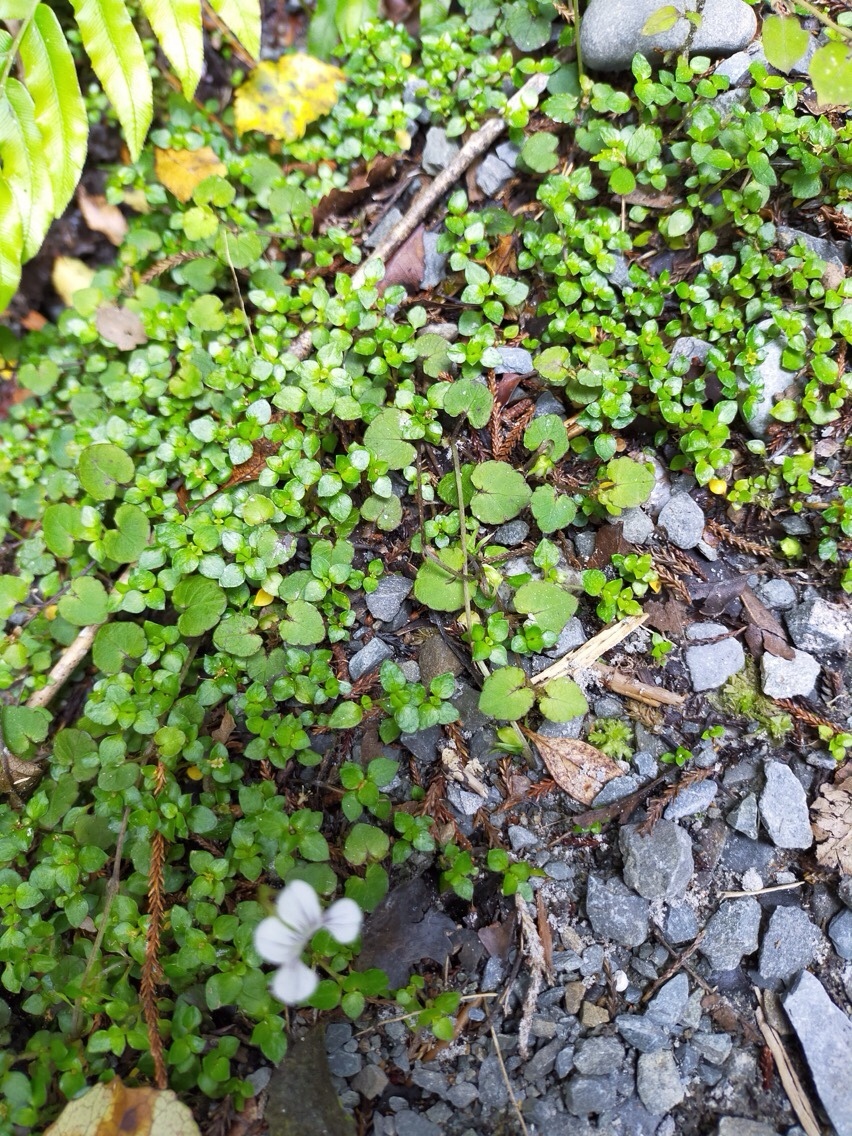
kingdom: Plantae
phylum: Tracheophyta
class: Magnoliopsida
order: Malpighiales
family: Violaceae
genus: Viola
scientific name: Viola filicaulis
